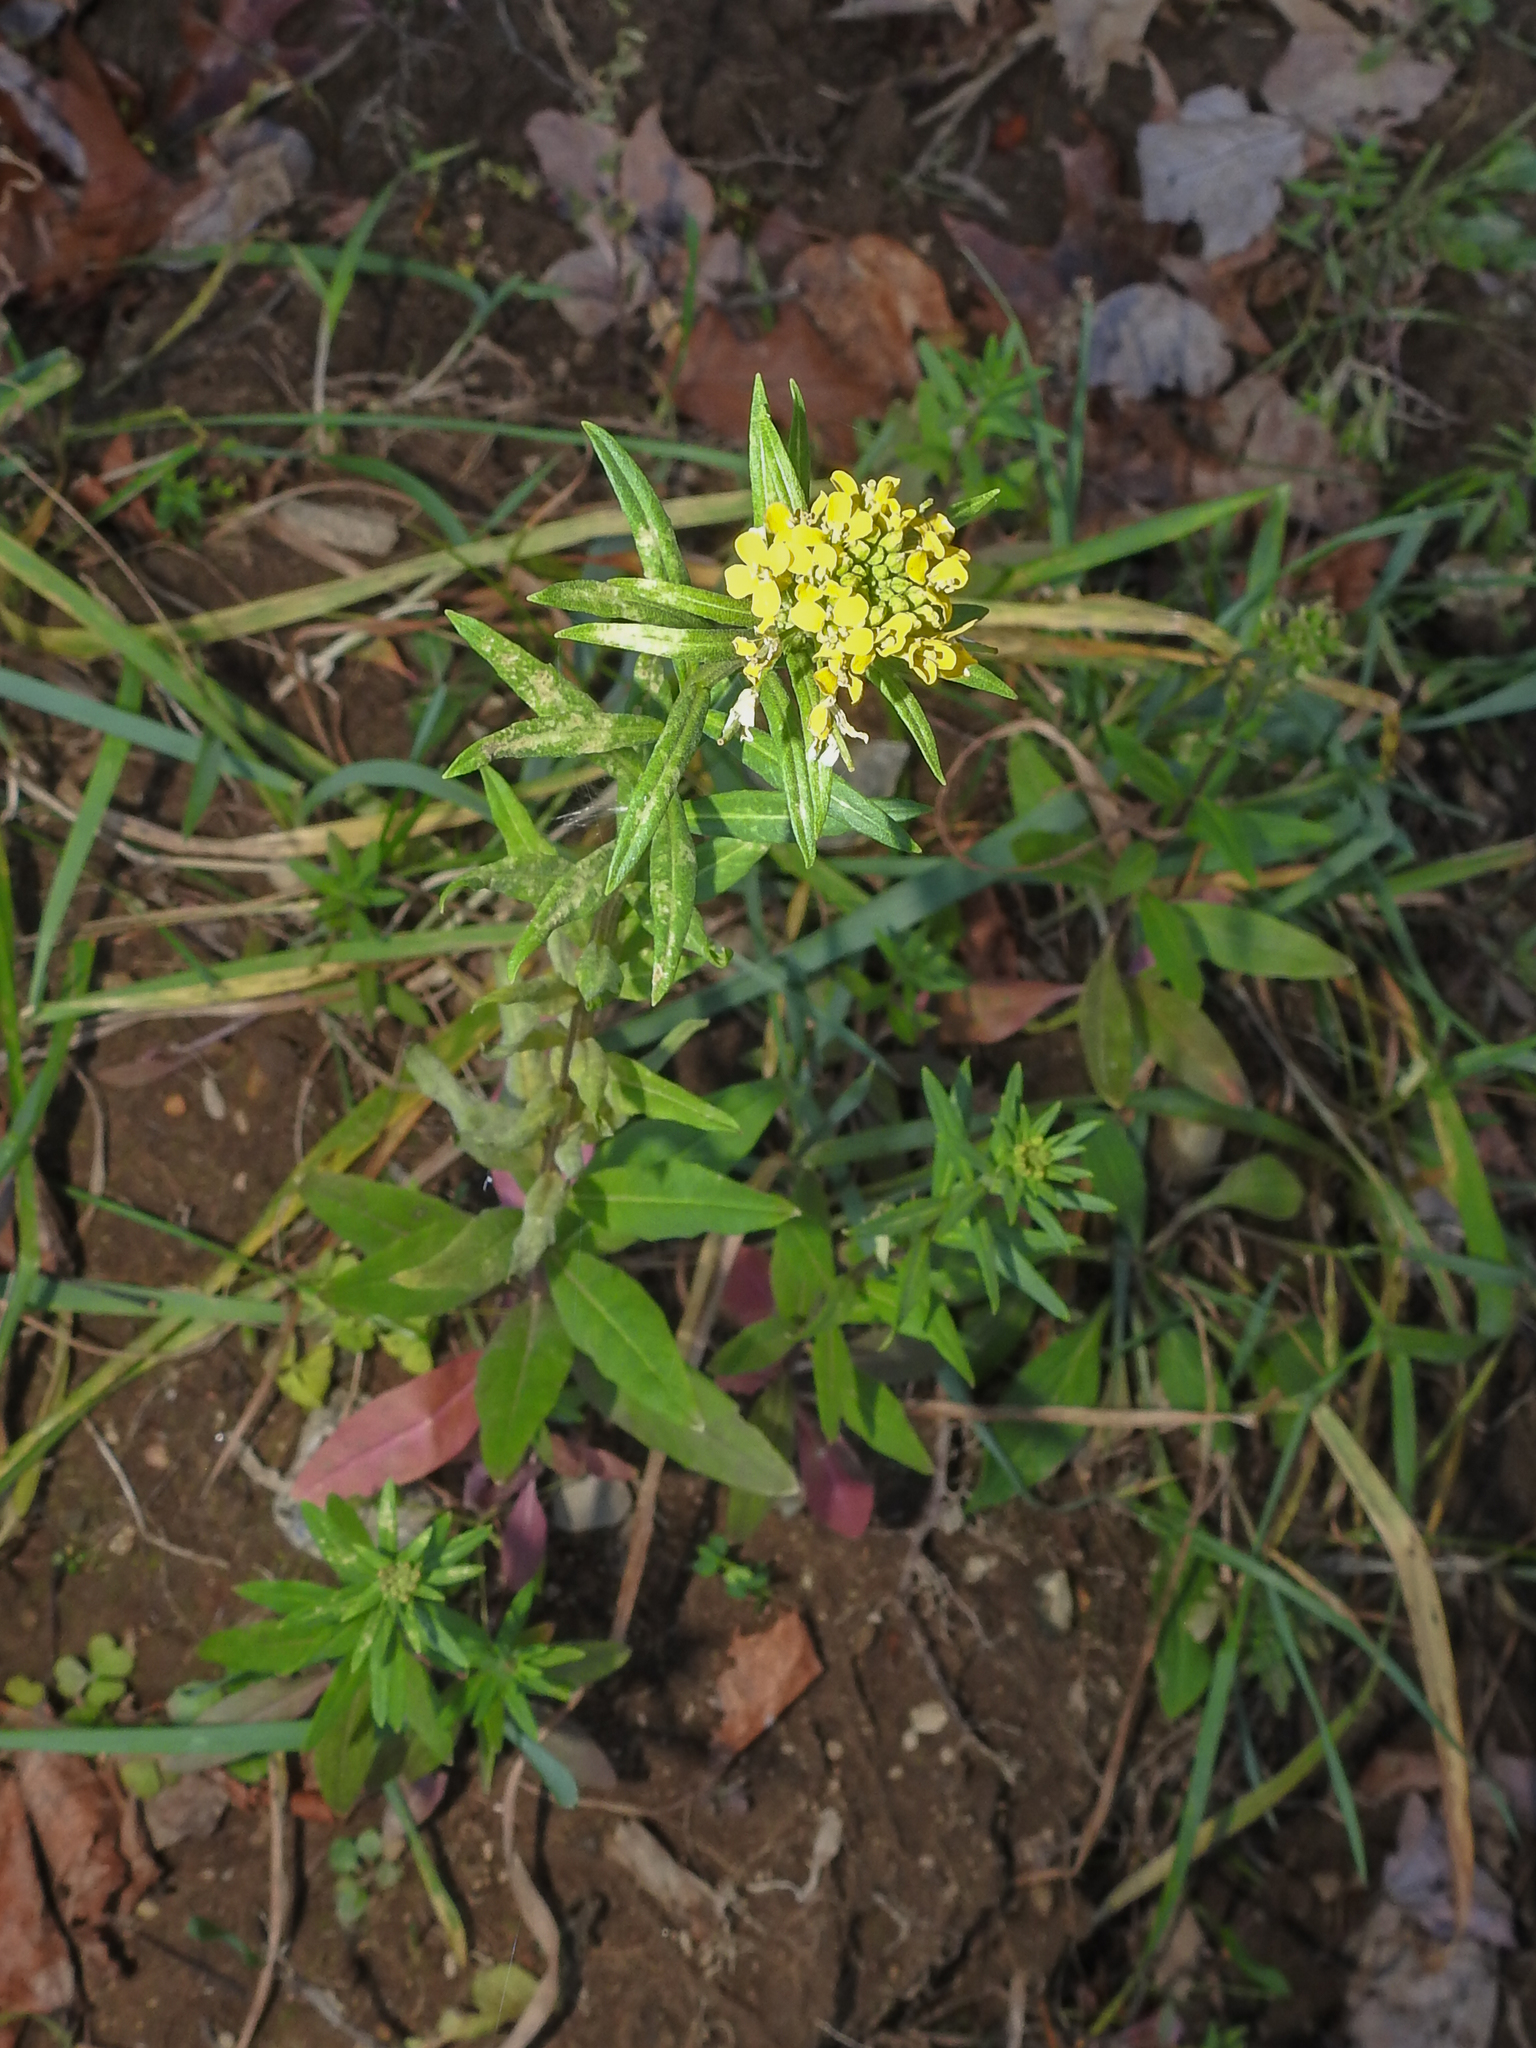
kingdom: Plantae
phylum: Tracheophyta
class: Magnoliopsida
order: Brassicales
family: Brassicaceae
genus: Erysimum
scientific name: Erysimum cheiranthoides
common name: Treacle mustard
